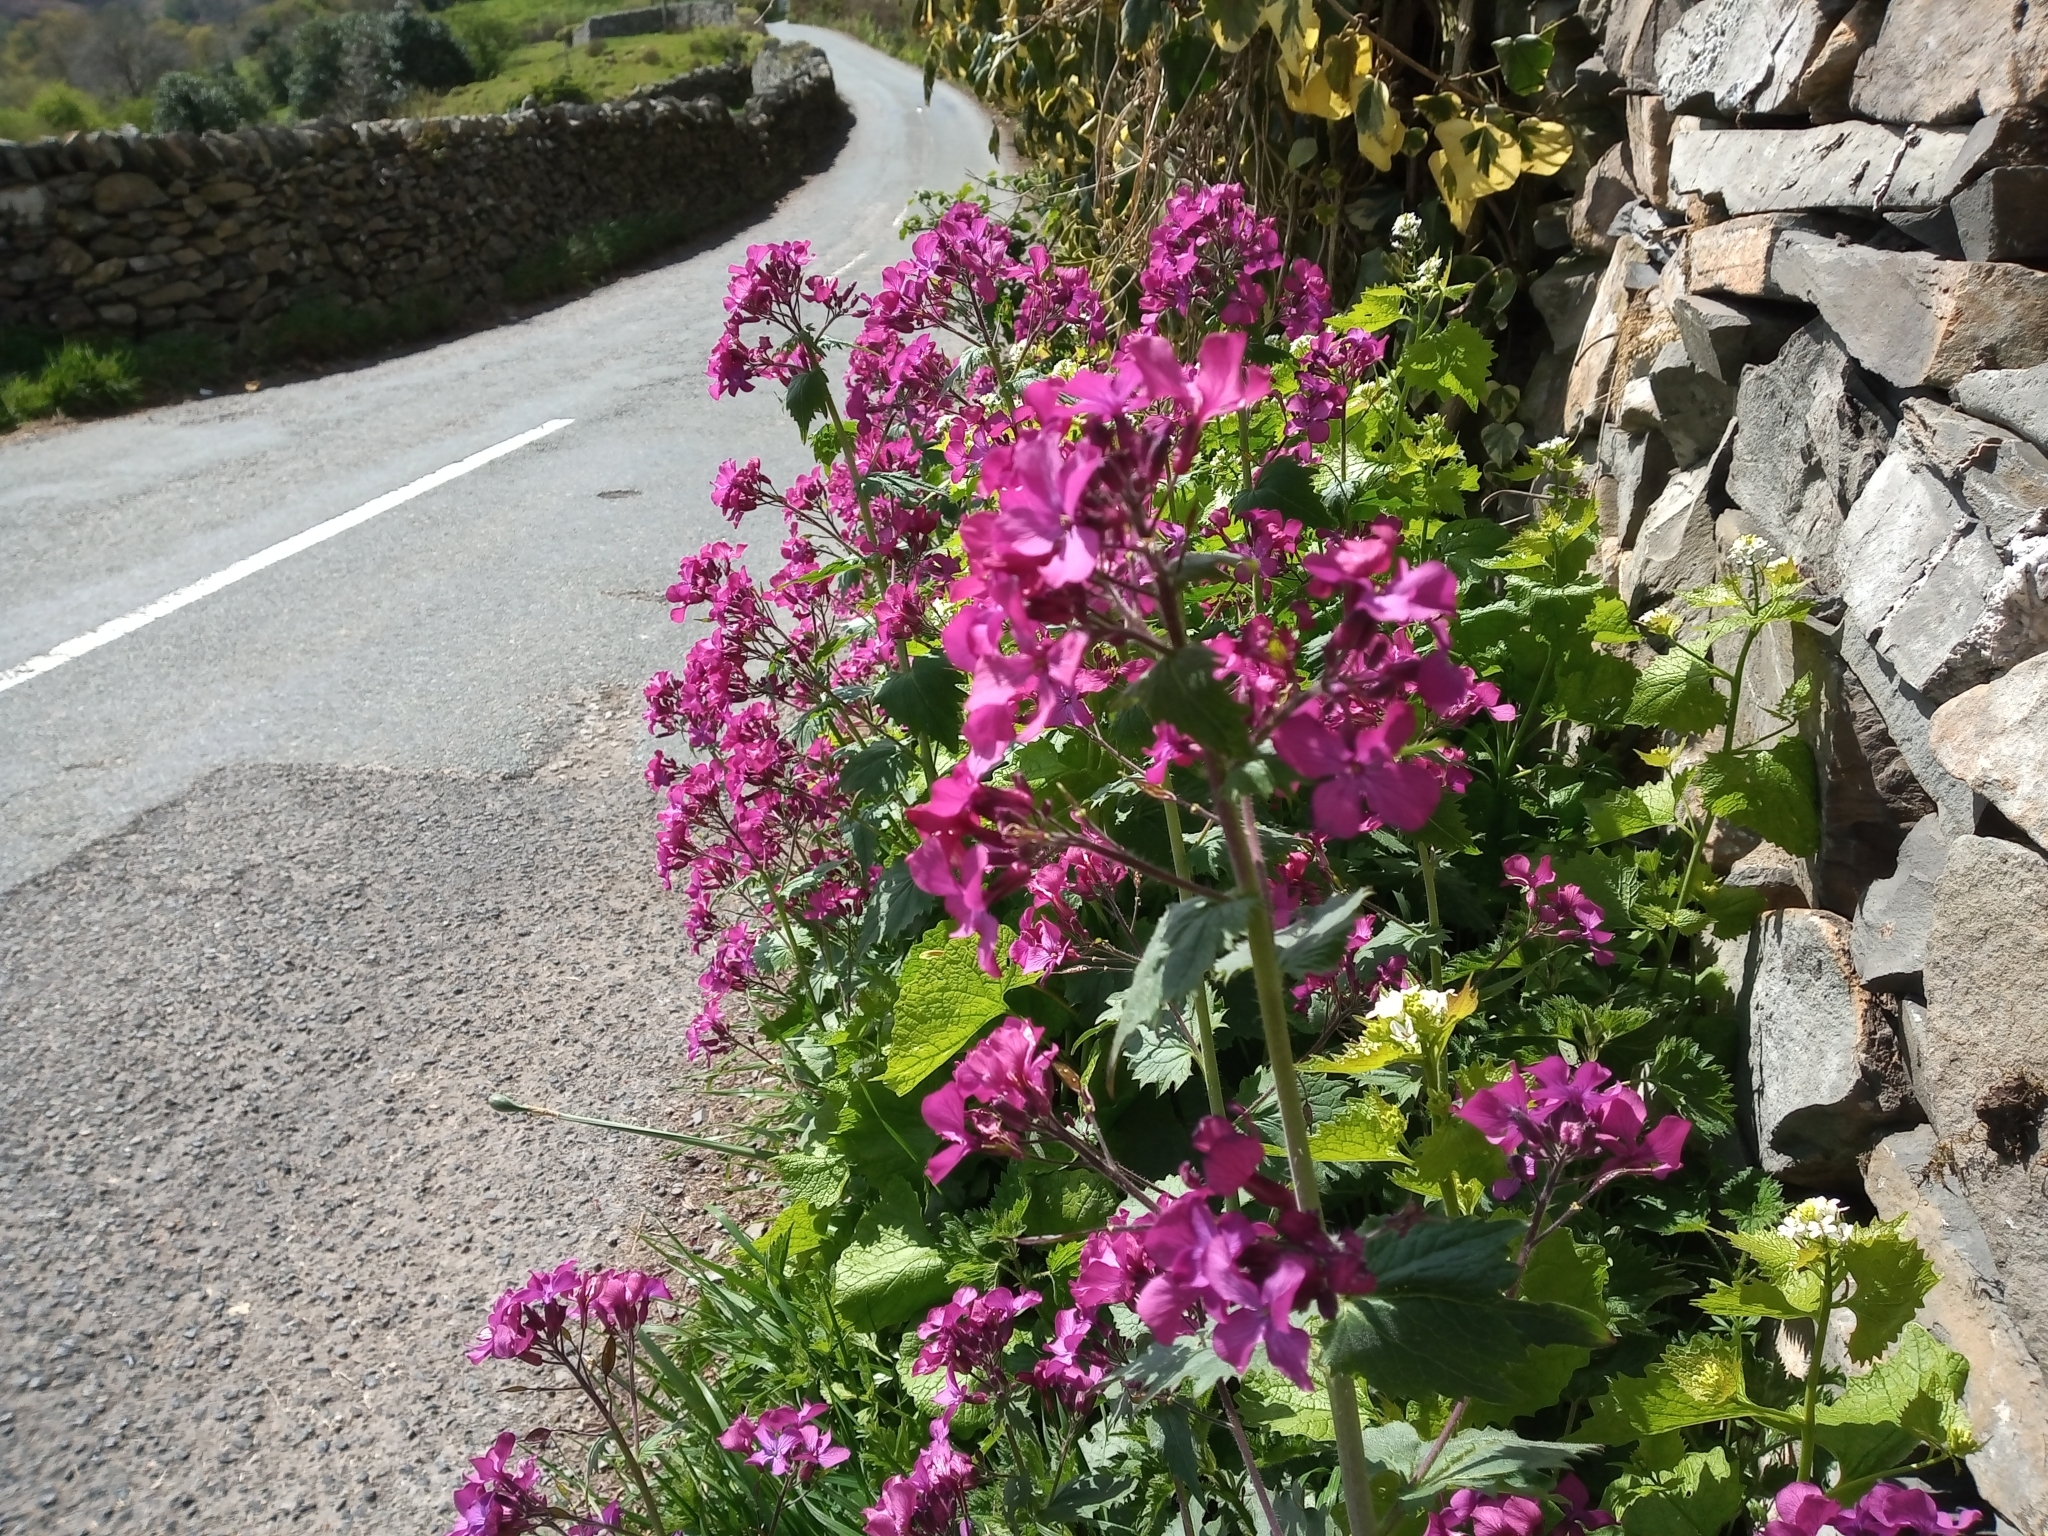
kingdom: Plantae
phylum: Tracheophyta
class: Magnoliopsida
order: Brassicales
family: Brassicaceae
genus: Lunaria
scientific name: Lunaria annua
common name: Honesty
